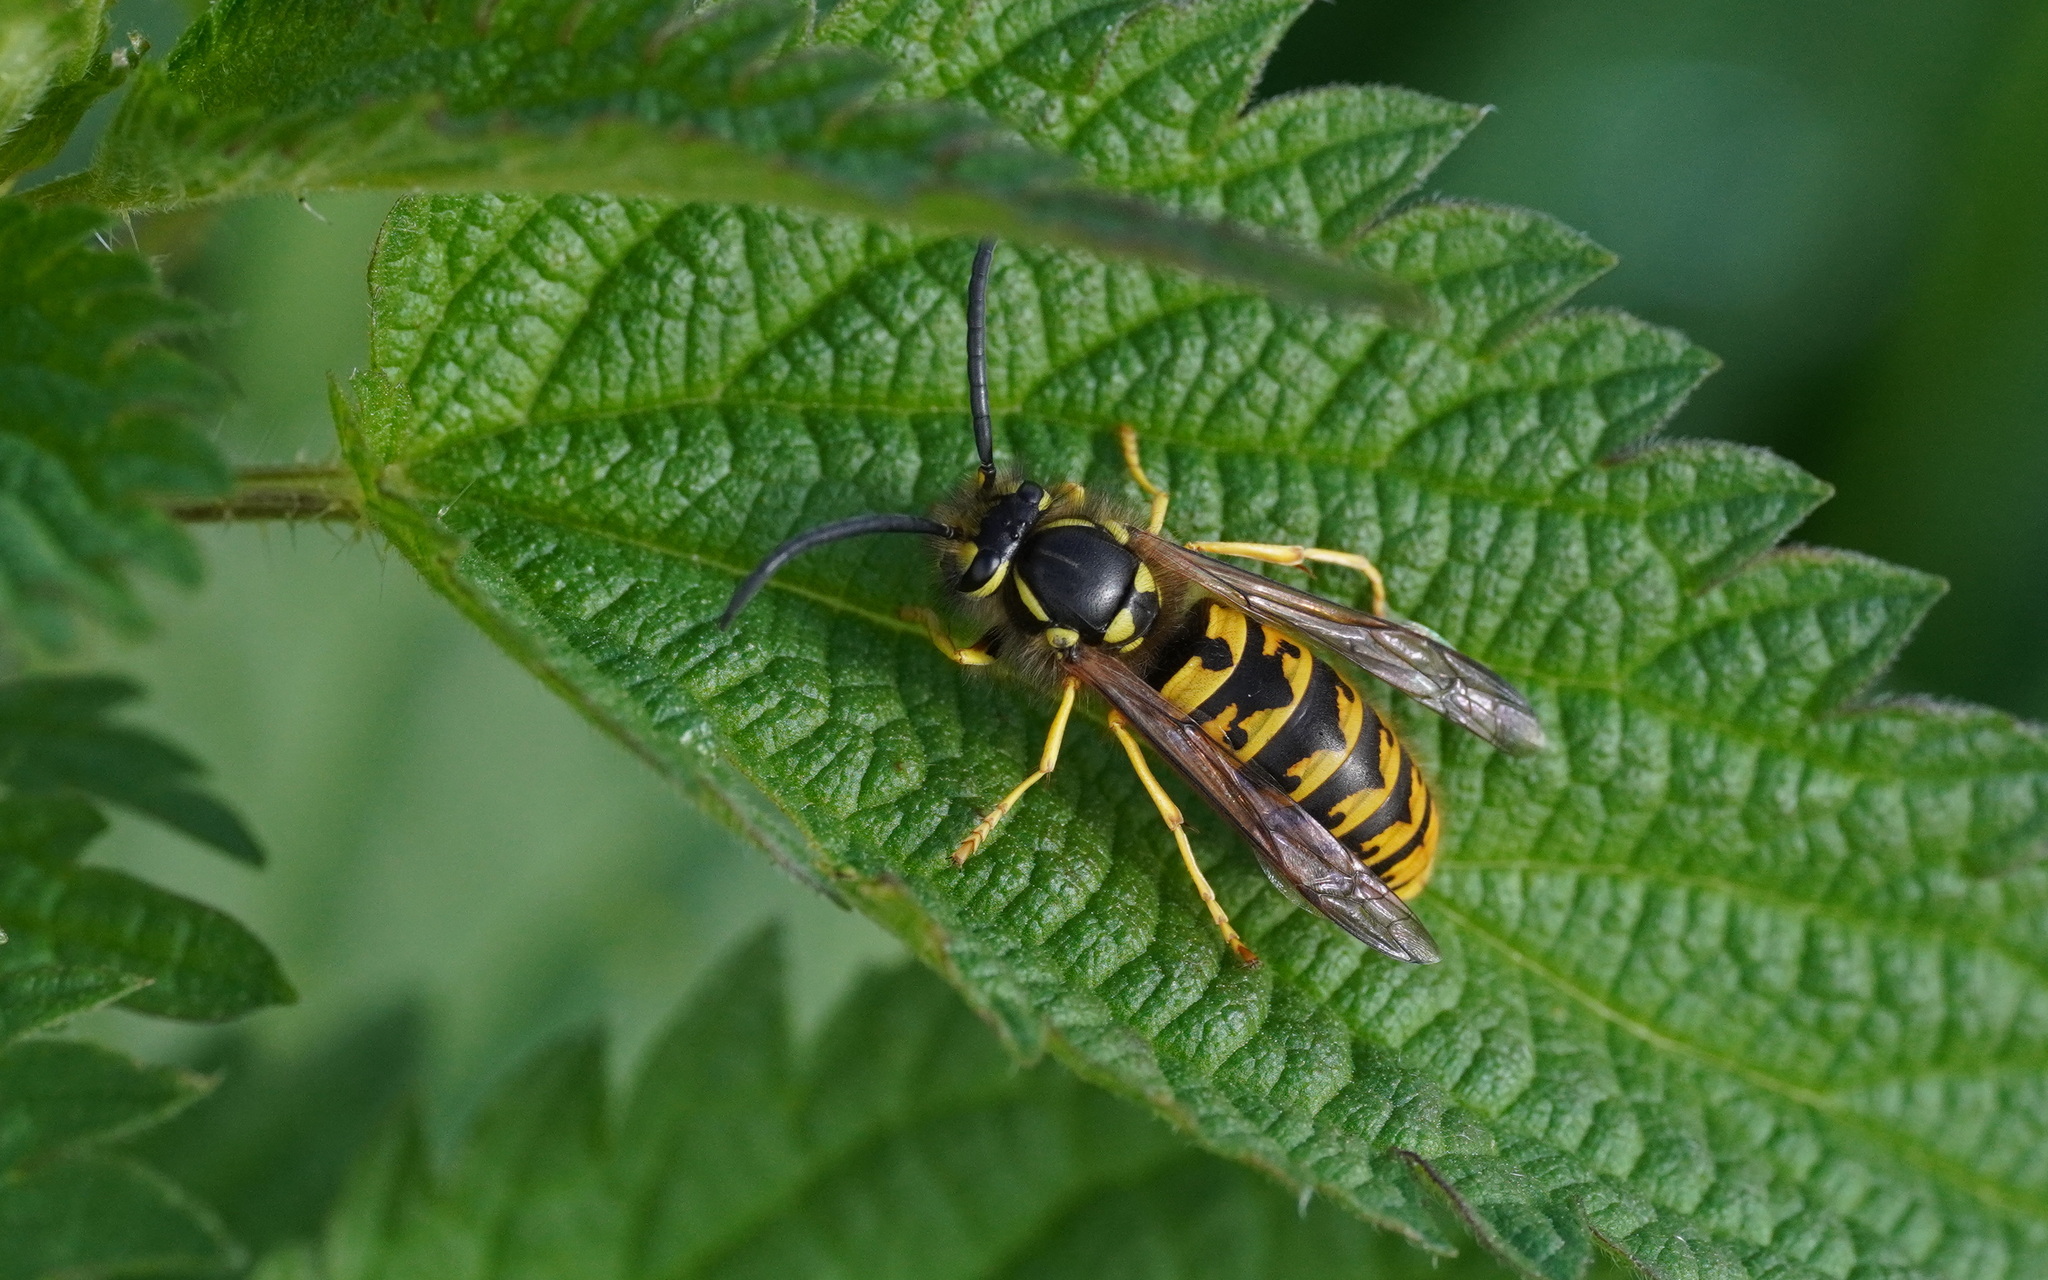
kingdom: Animalia
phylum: Arthropoda
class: Insecta
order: Hymenoptera
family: Vespidae
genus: Vespula
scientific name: Vespula germanica
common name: German wasp
